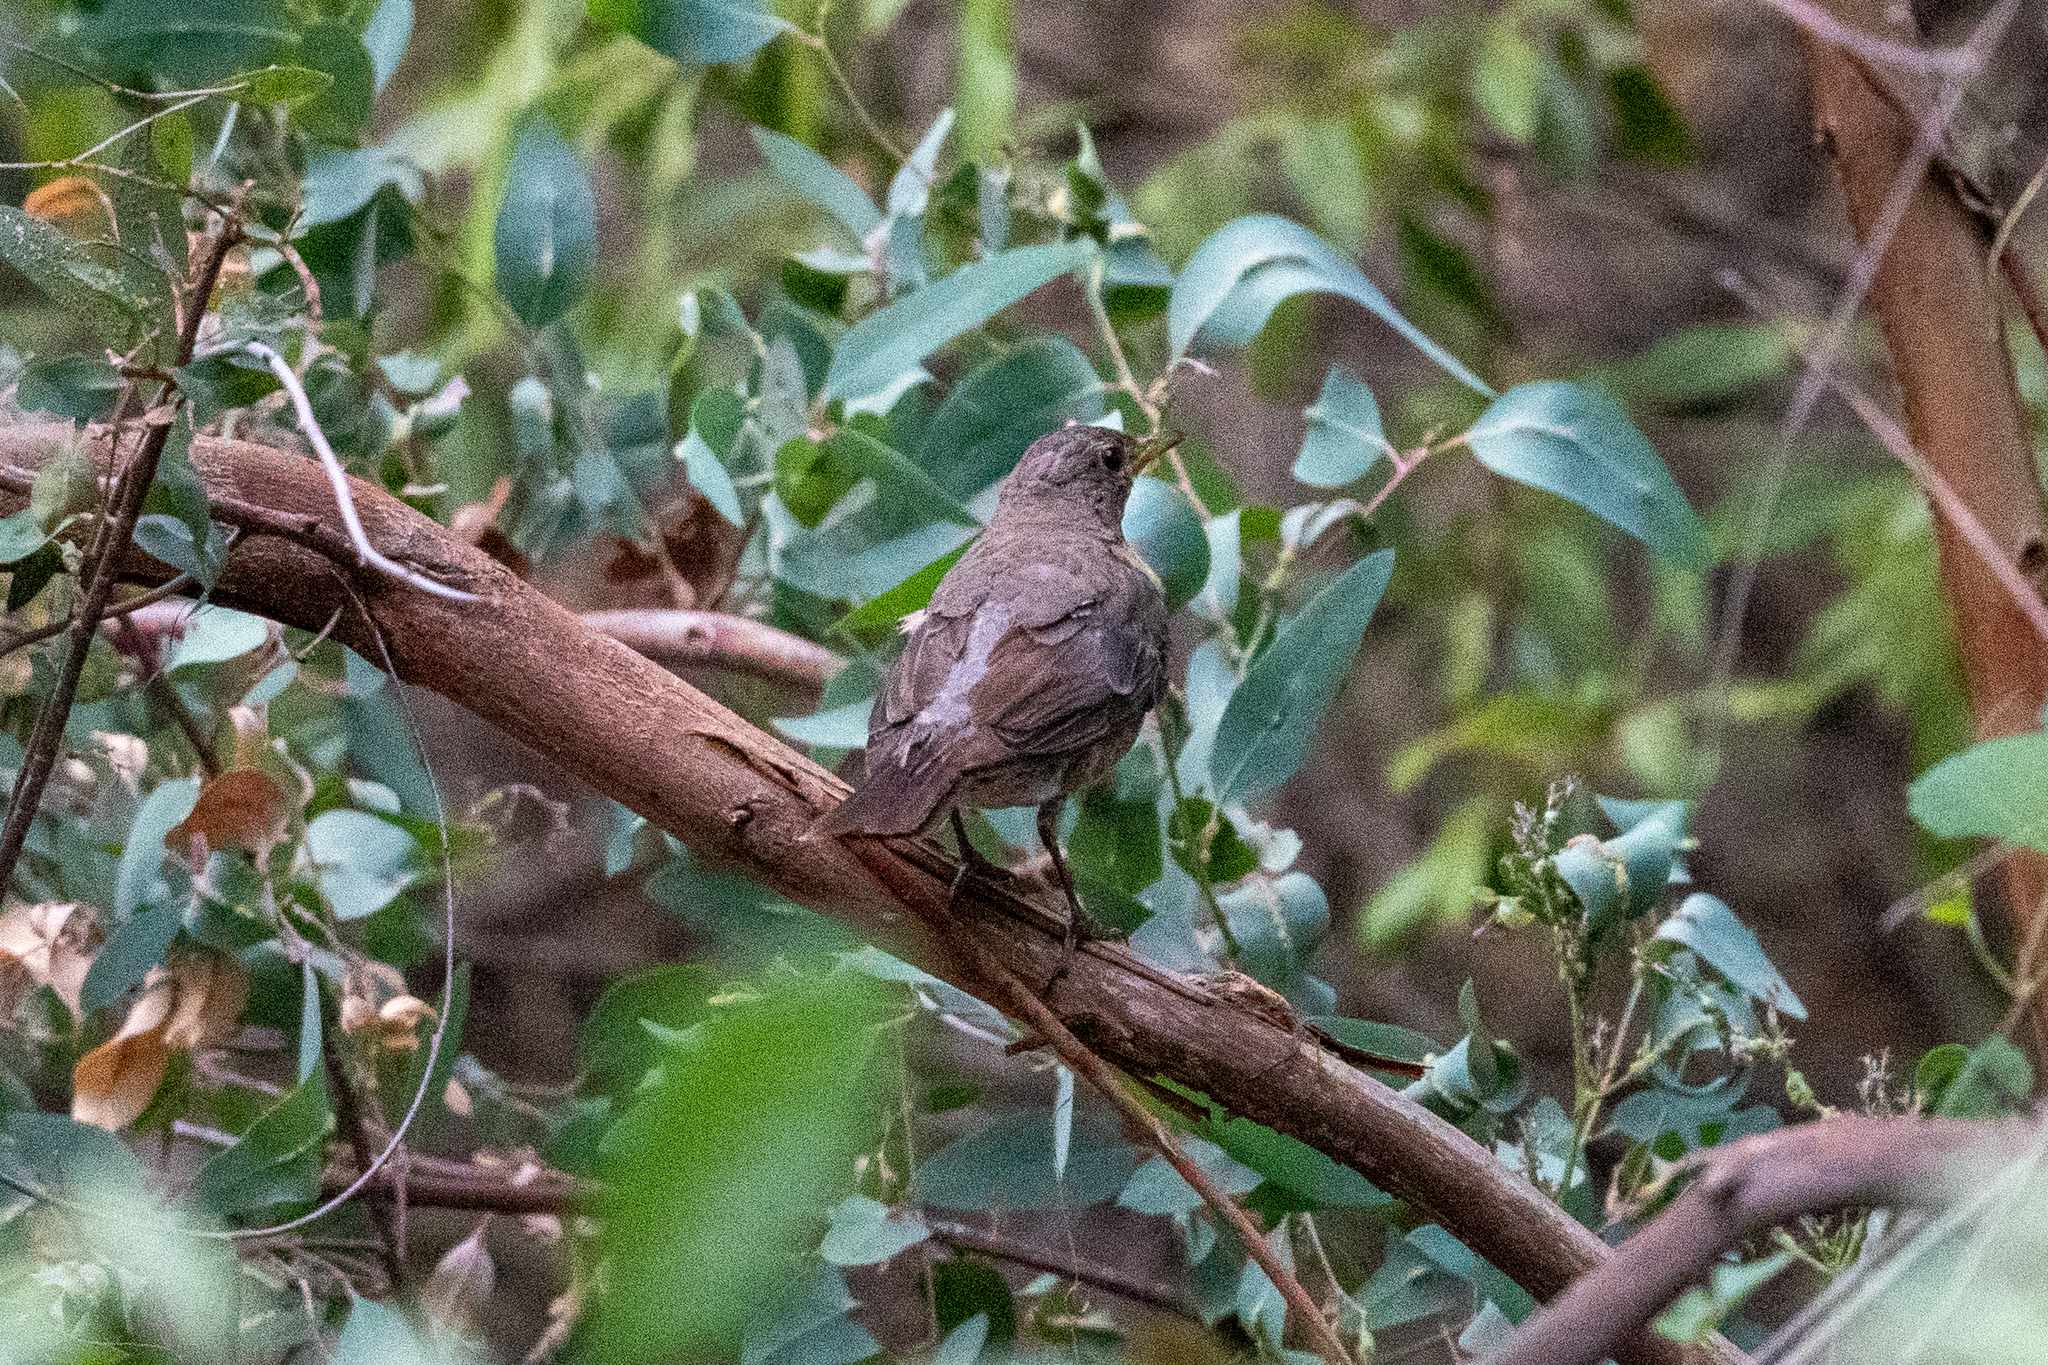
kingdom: Animalia
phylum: Chordata
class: Aves
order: Passeriformes
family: Turdidae
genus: Turdus
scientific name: Turdus migratorius
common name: American robin
